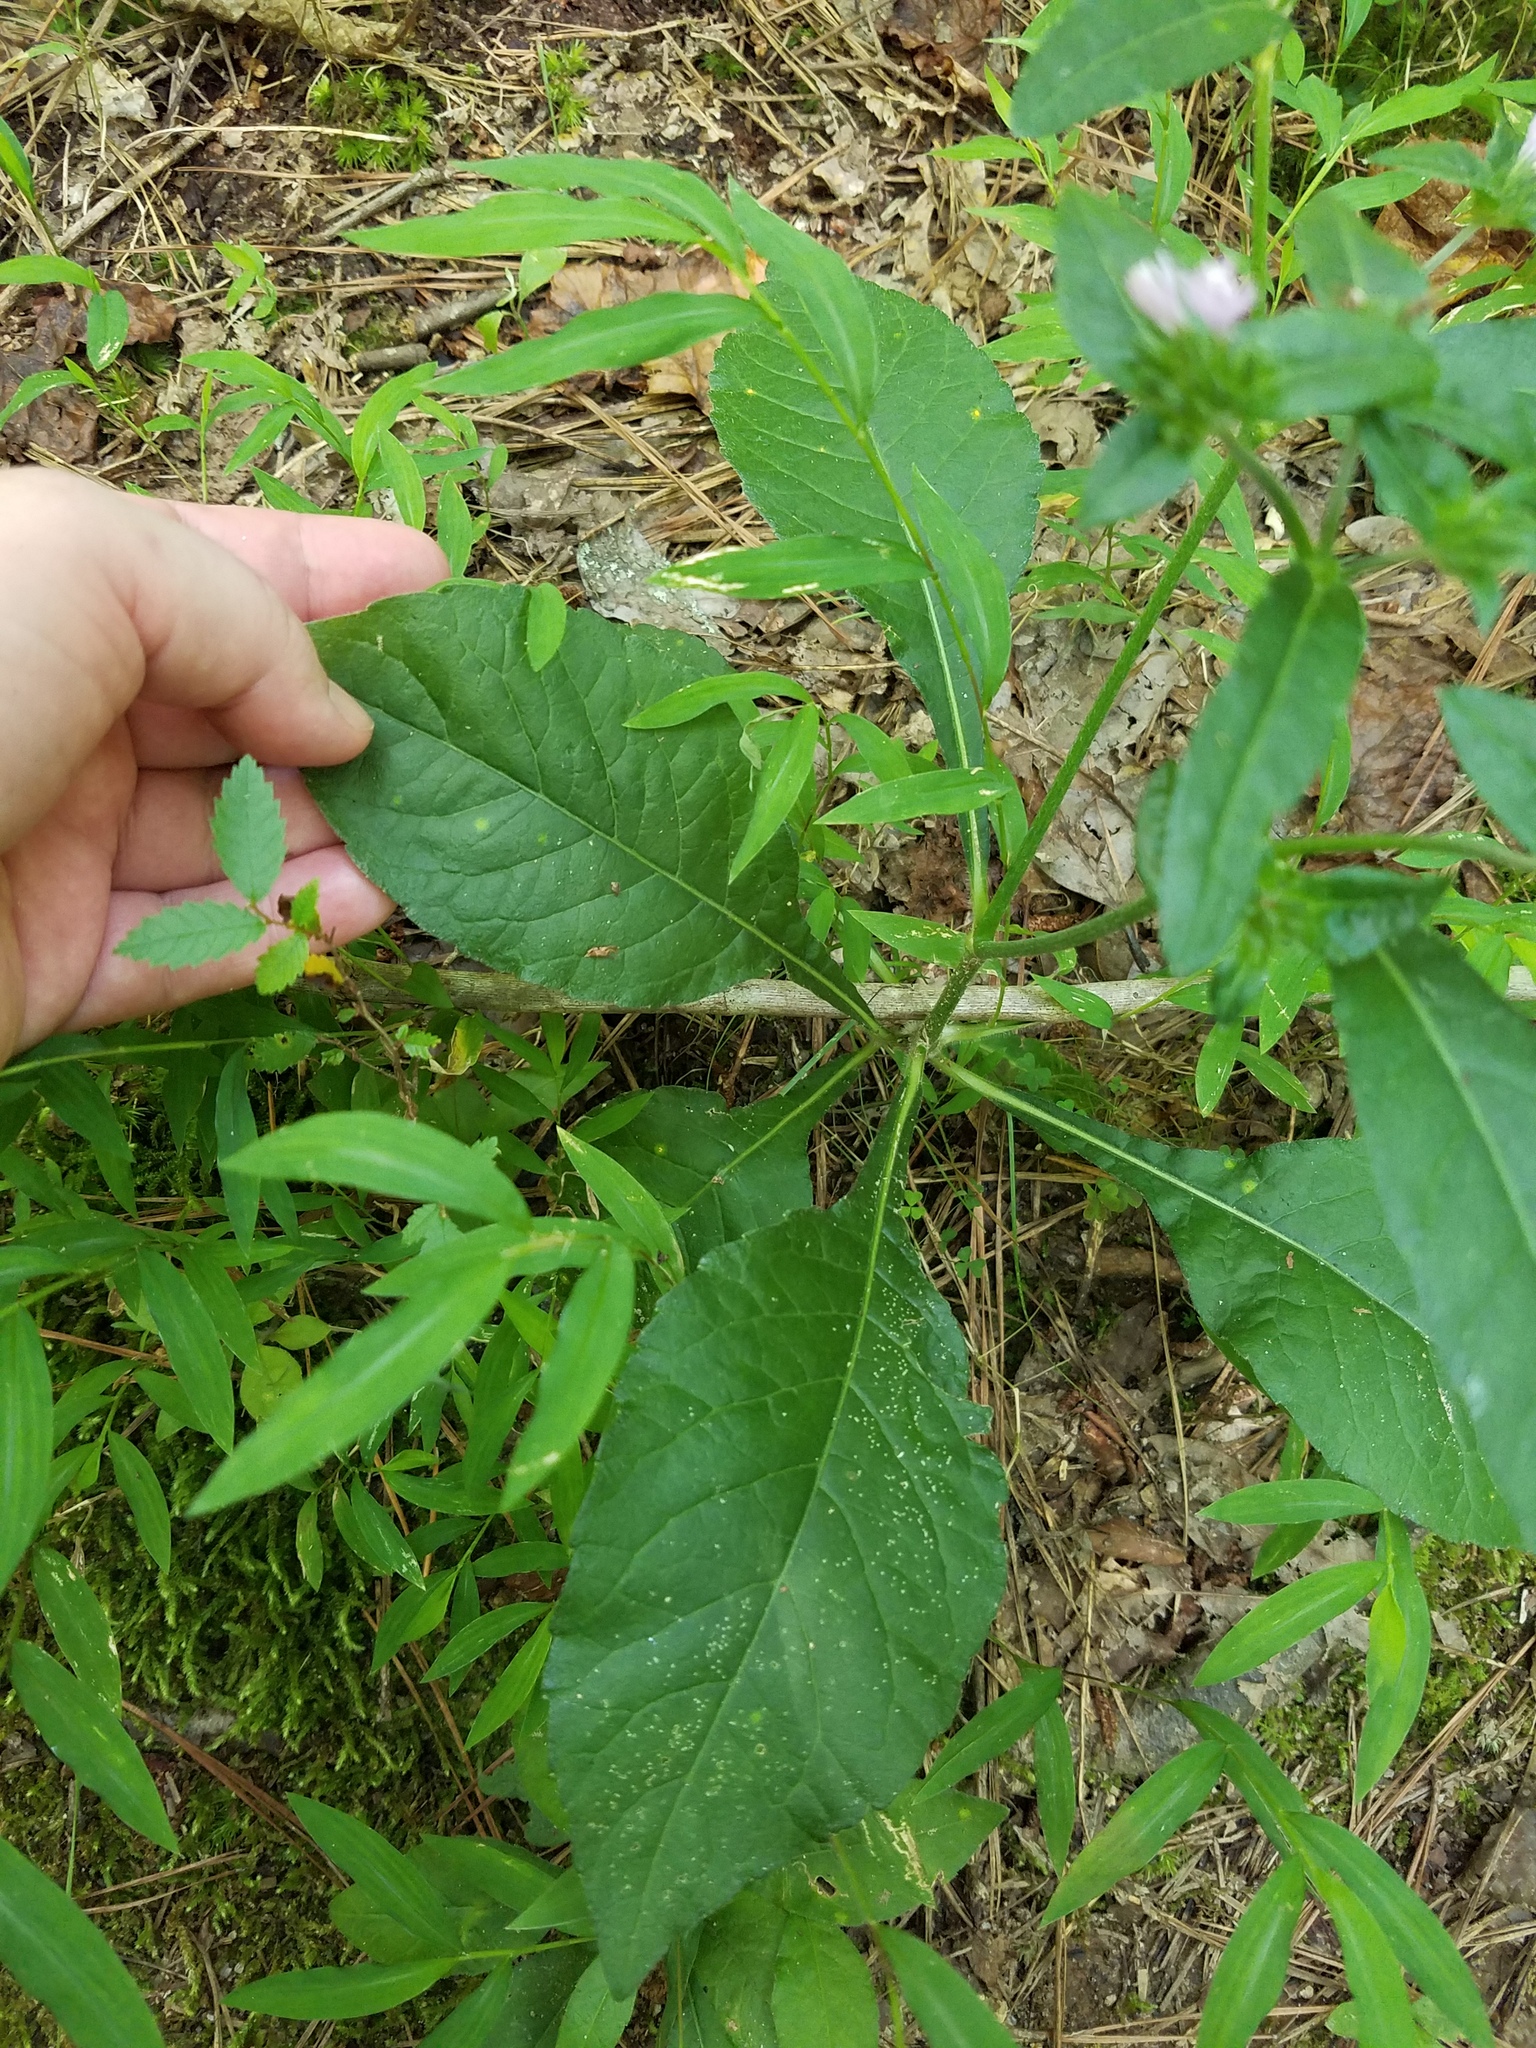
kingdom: Plantae
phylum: Tracheophyta
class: Magnoliopsida
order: Asterales
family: Asteraceae
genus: Elephantopus
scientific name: Elephantopus carolinianus
